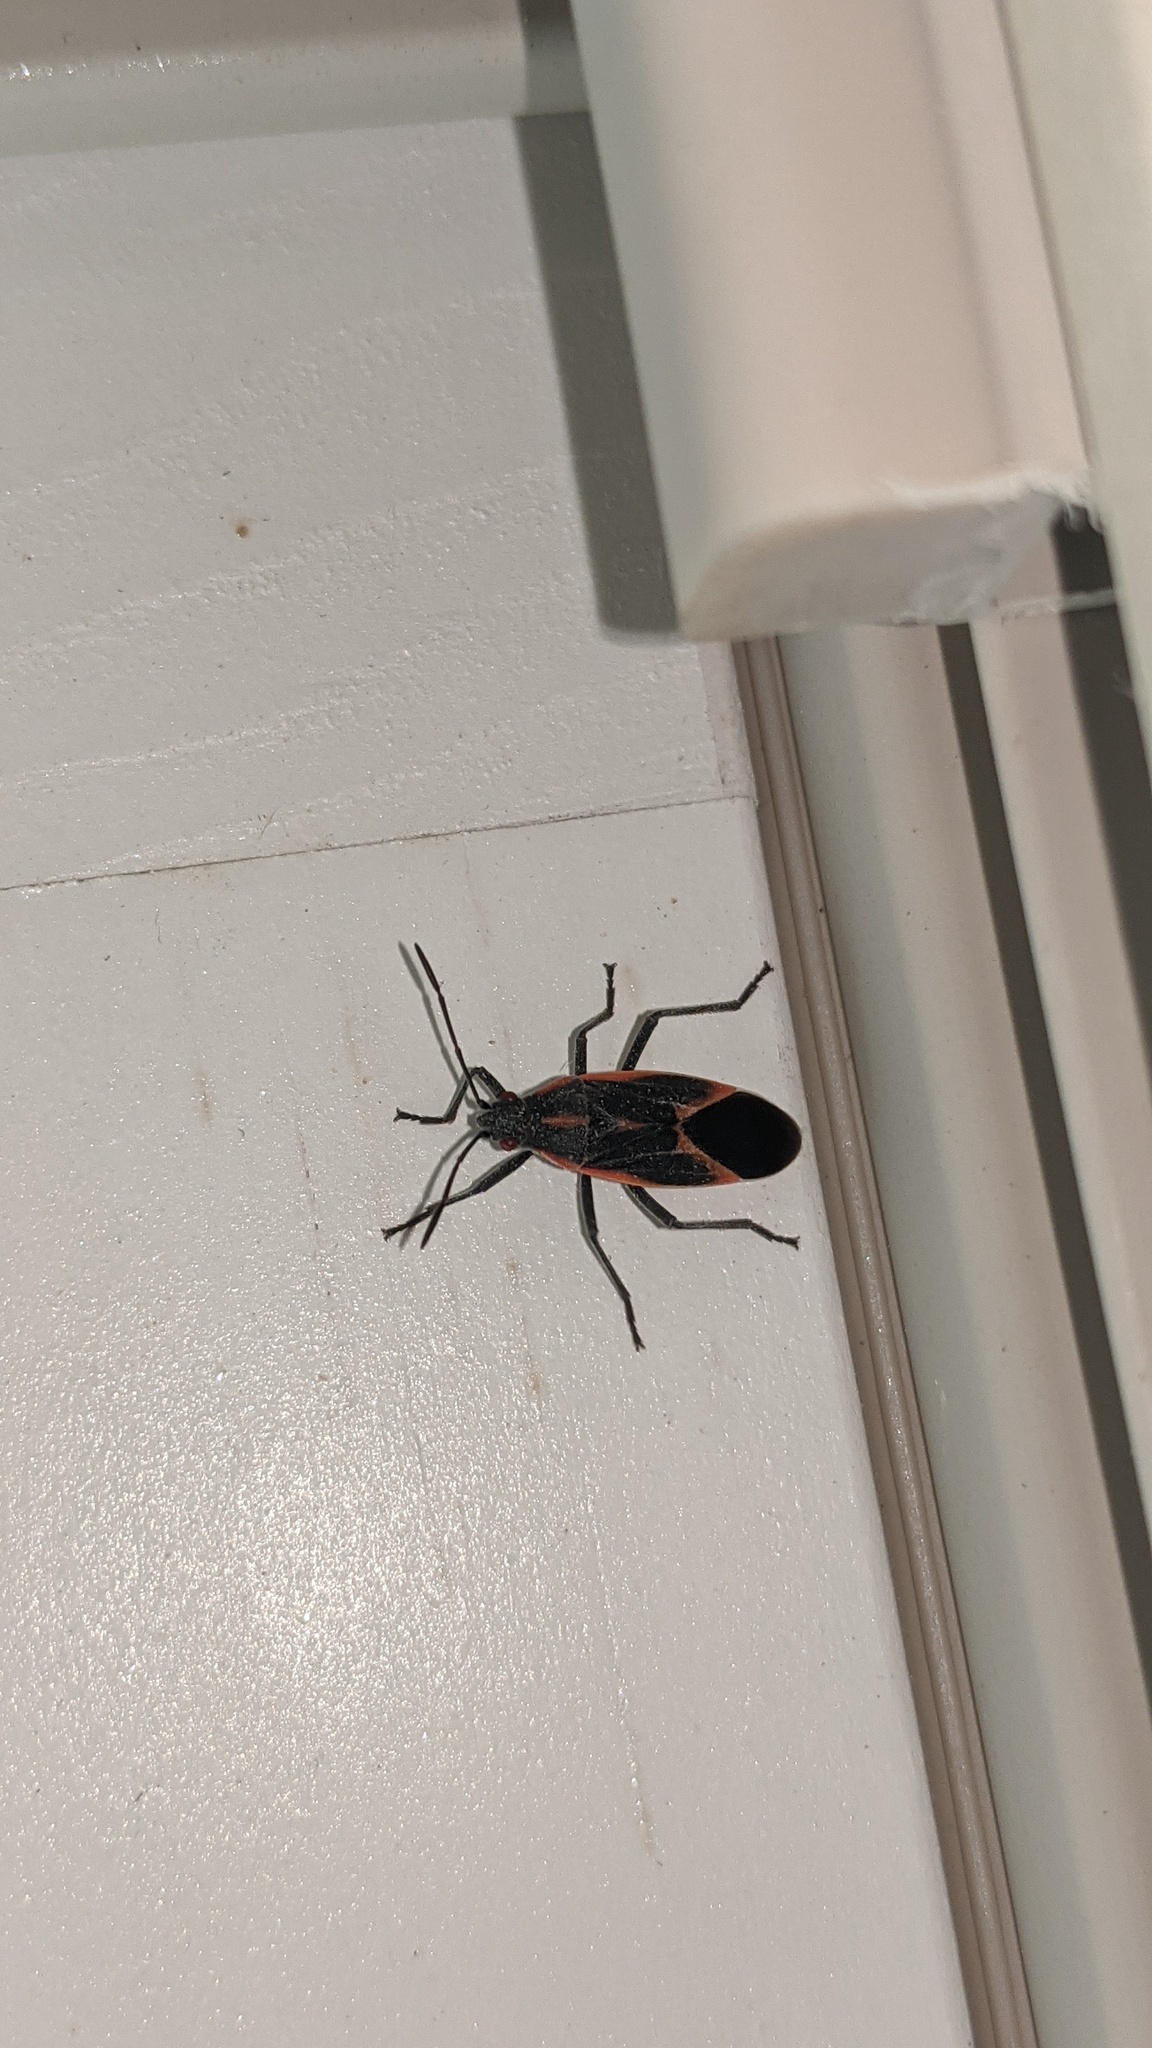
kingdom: Animalia
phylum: Arthropoda
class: Insecta
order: Hemiptera
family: Rhopalidae
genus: Boisea
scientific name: Boisea trivittata
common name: Boxelder bug
